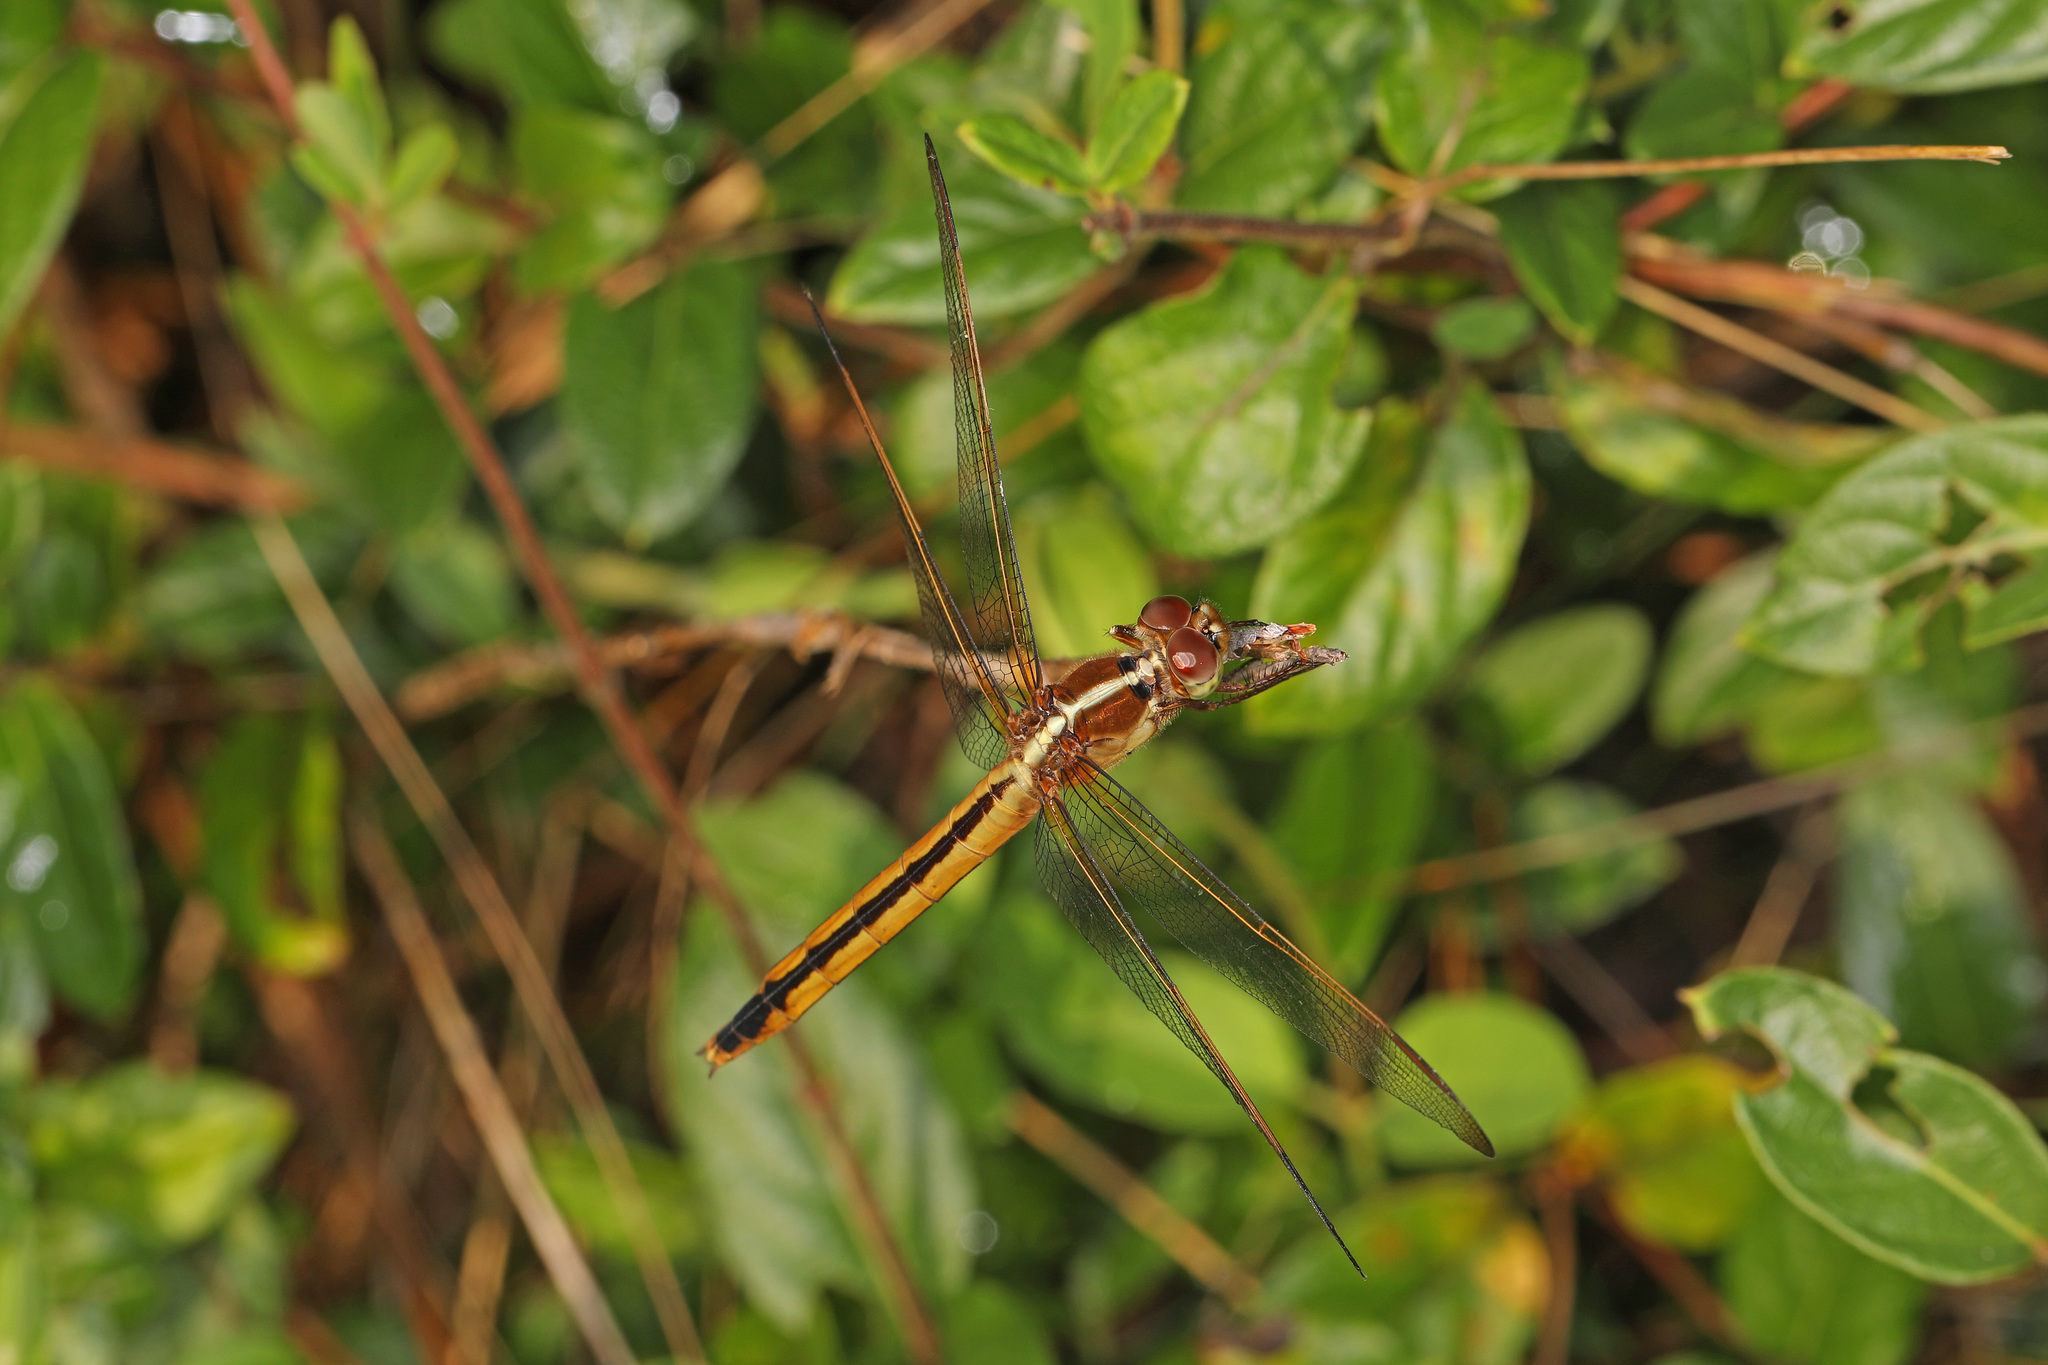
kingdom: Animalia
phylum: Arthropoda
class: Insecta
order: Odonata
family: Libellulidae
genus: Libellula
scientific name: Libellula needhami
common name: Needham's skimmer
